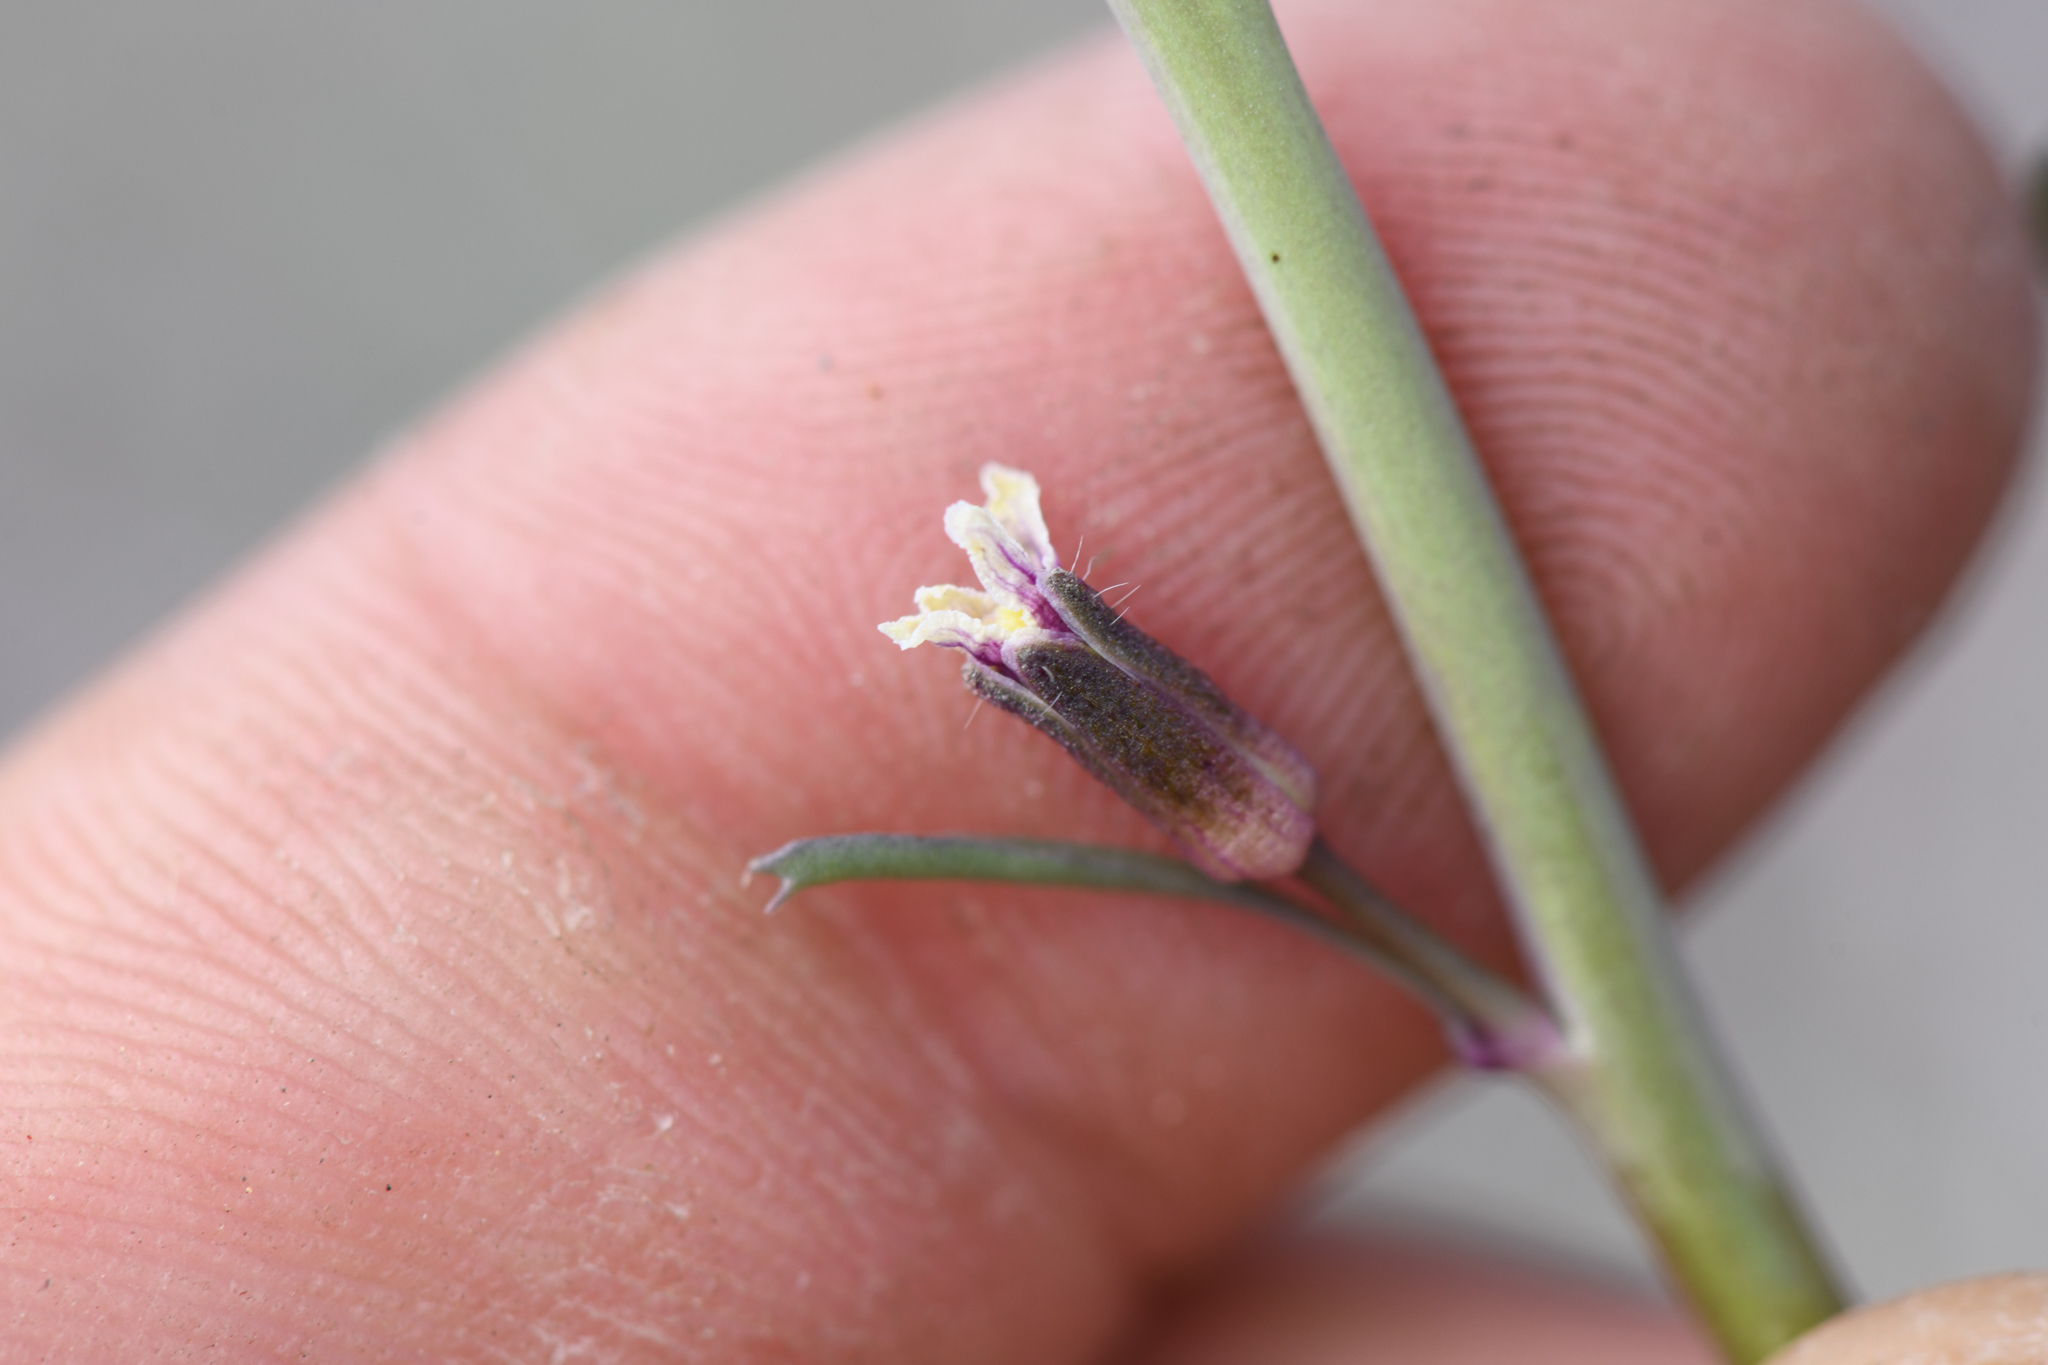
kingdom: Plantae
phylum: Tracheophyta
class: Magnoliopsida
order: Brassicales
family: Brassicaceae
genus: Streptanthus
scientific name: Streptanthus pilosus
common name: Chocolate drops
